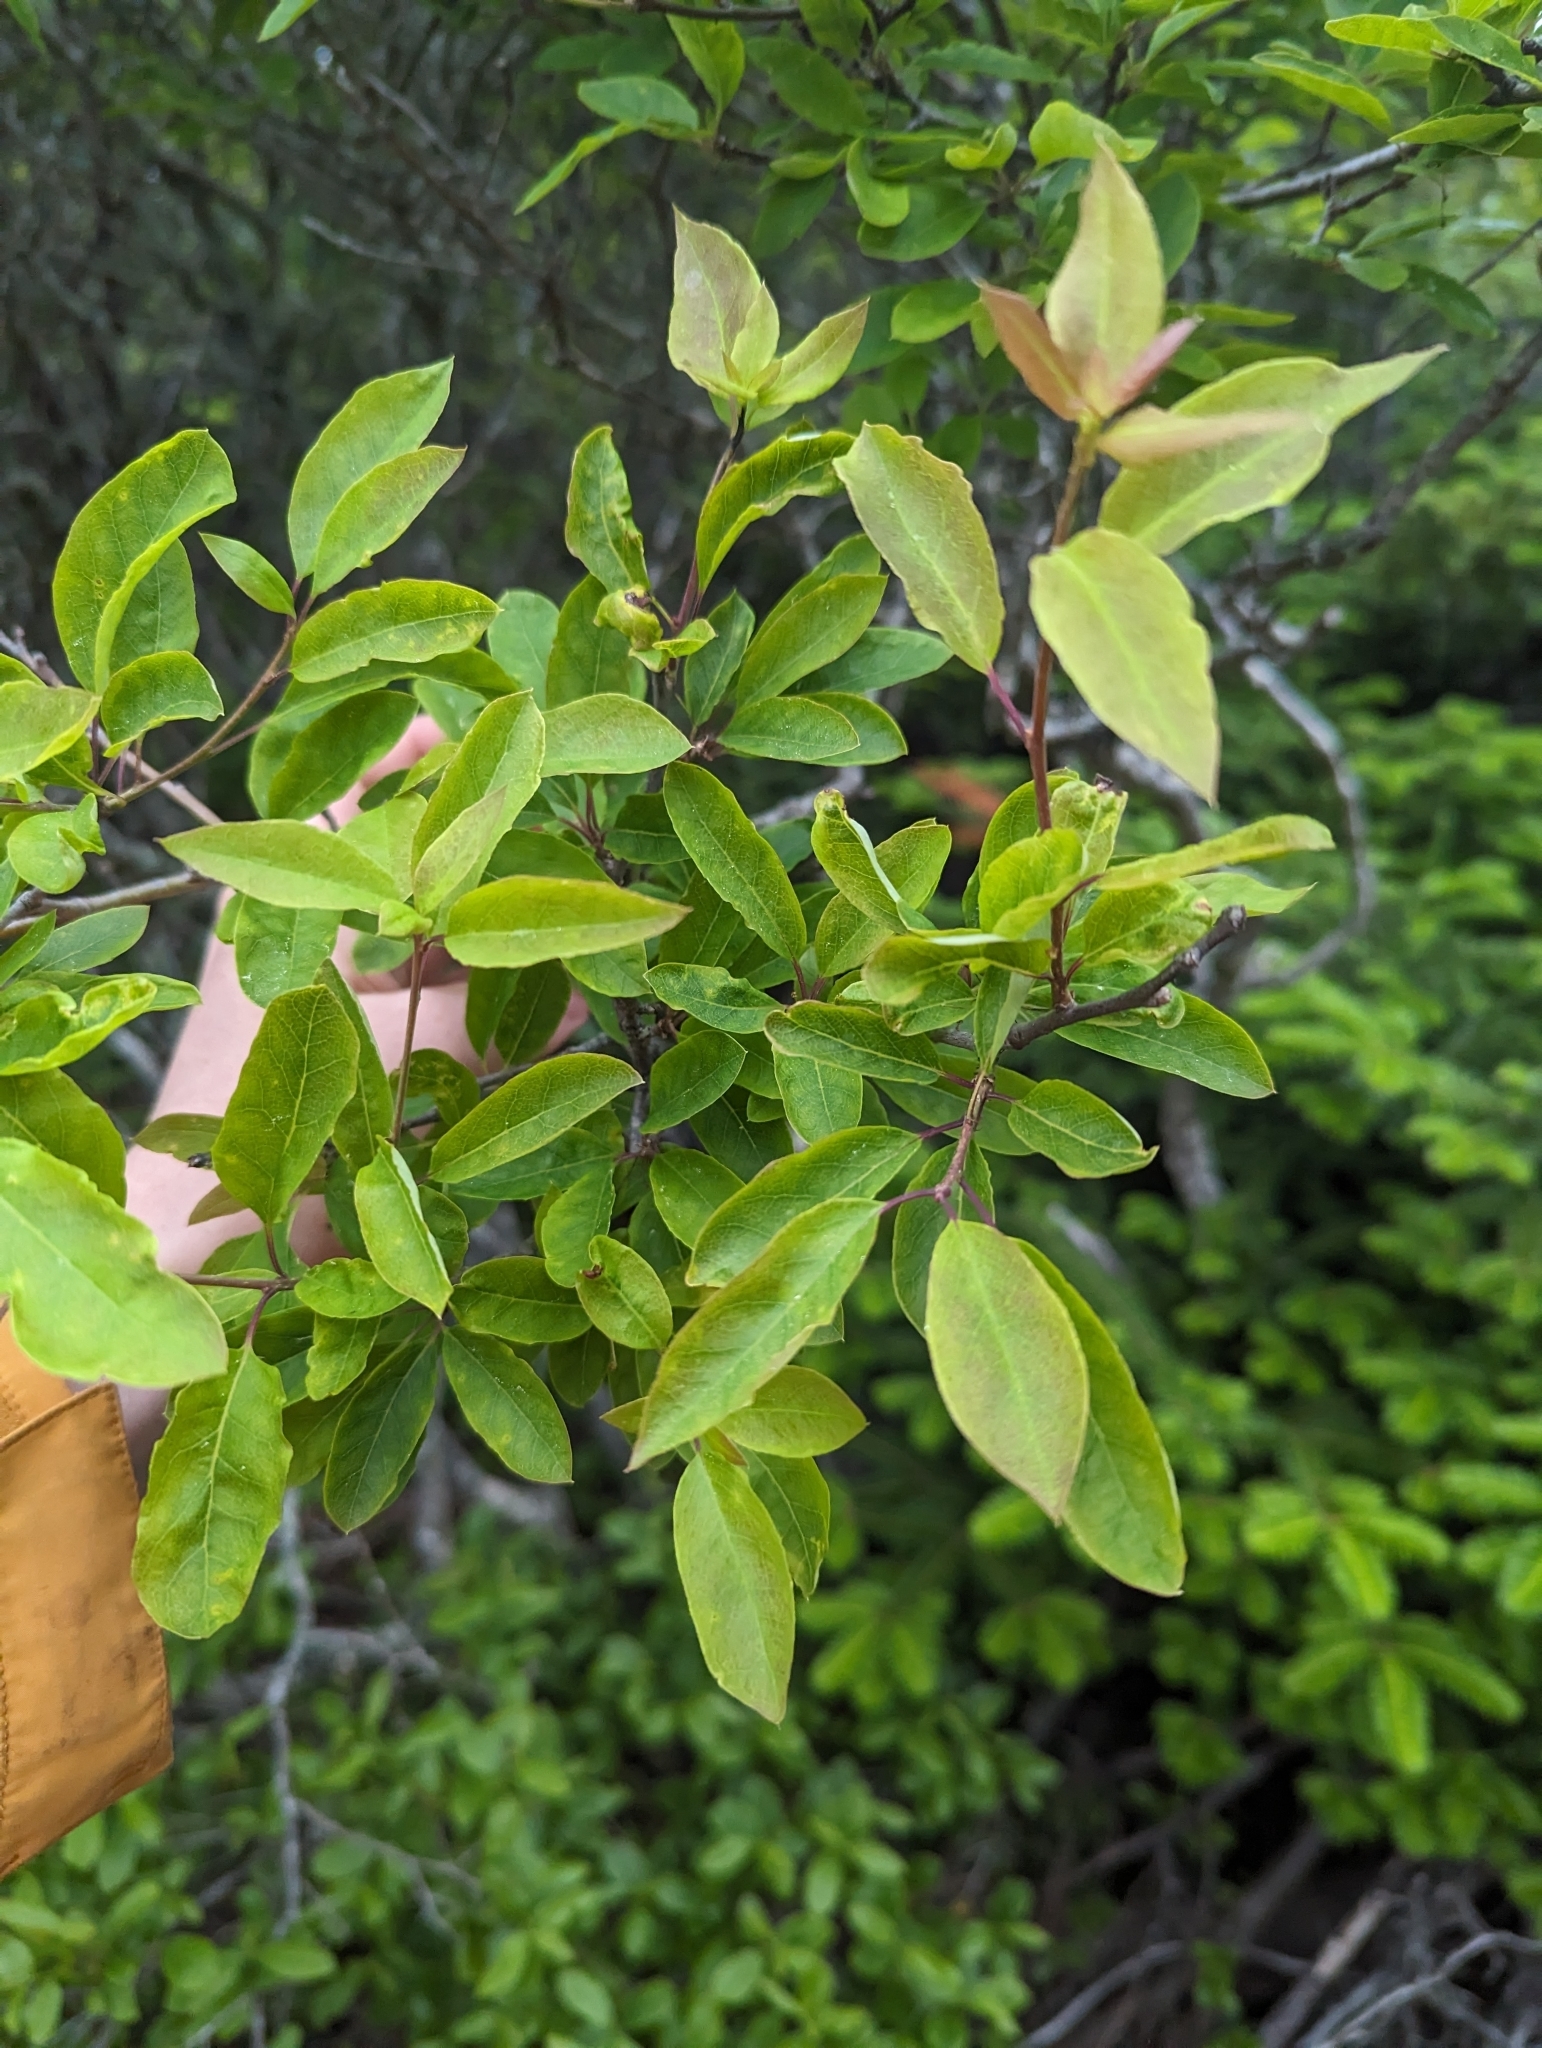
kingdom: Plantae
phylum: Tracheophyta
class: Magnoliopsida
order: Aquifoliales
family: Aquifoliaceae
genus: Ilex
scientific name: Ilex mucronata
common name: Catberry
